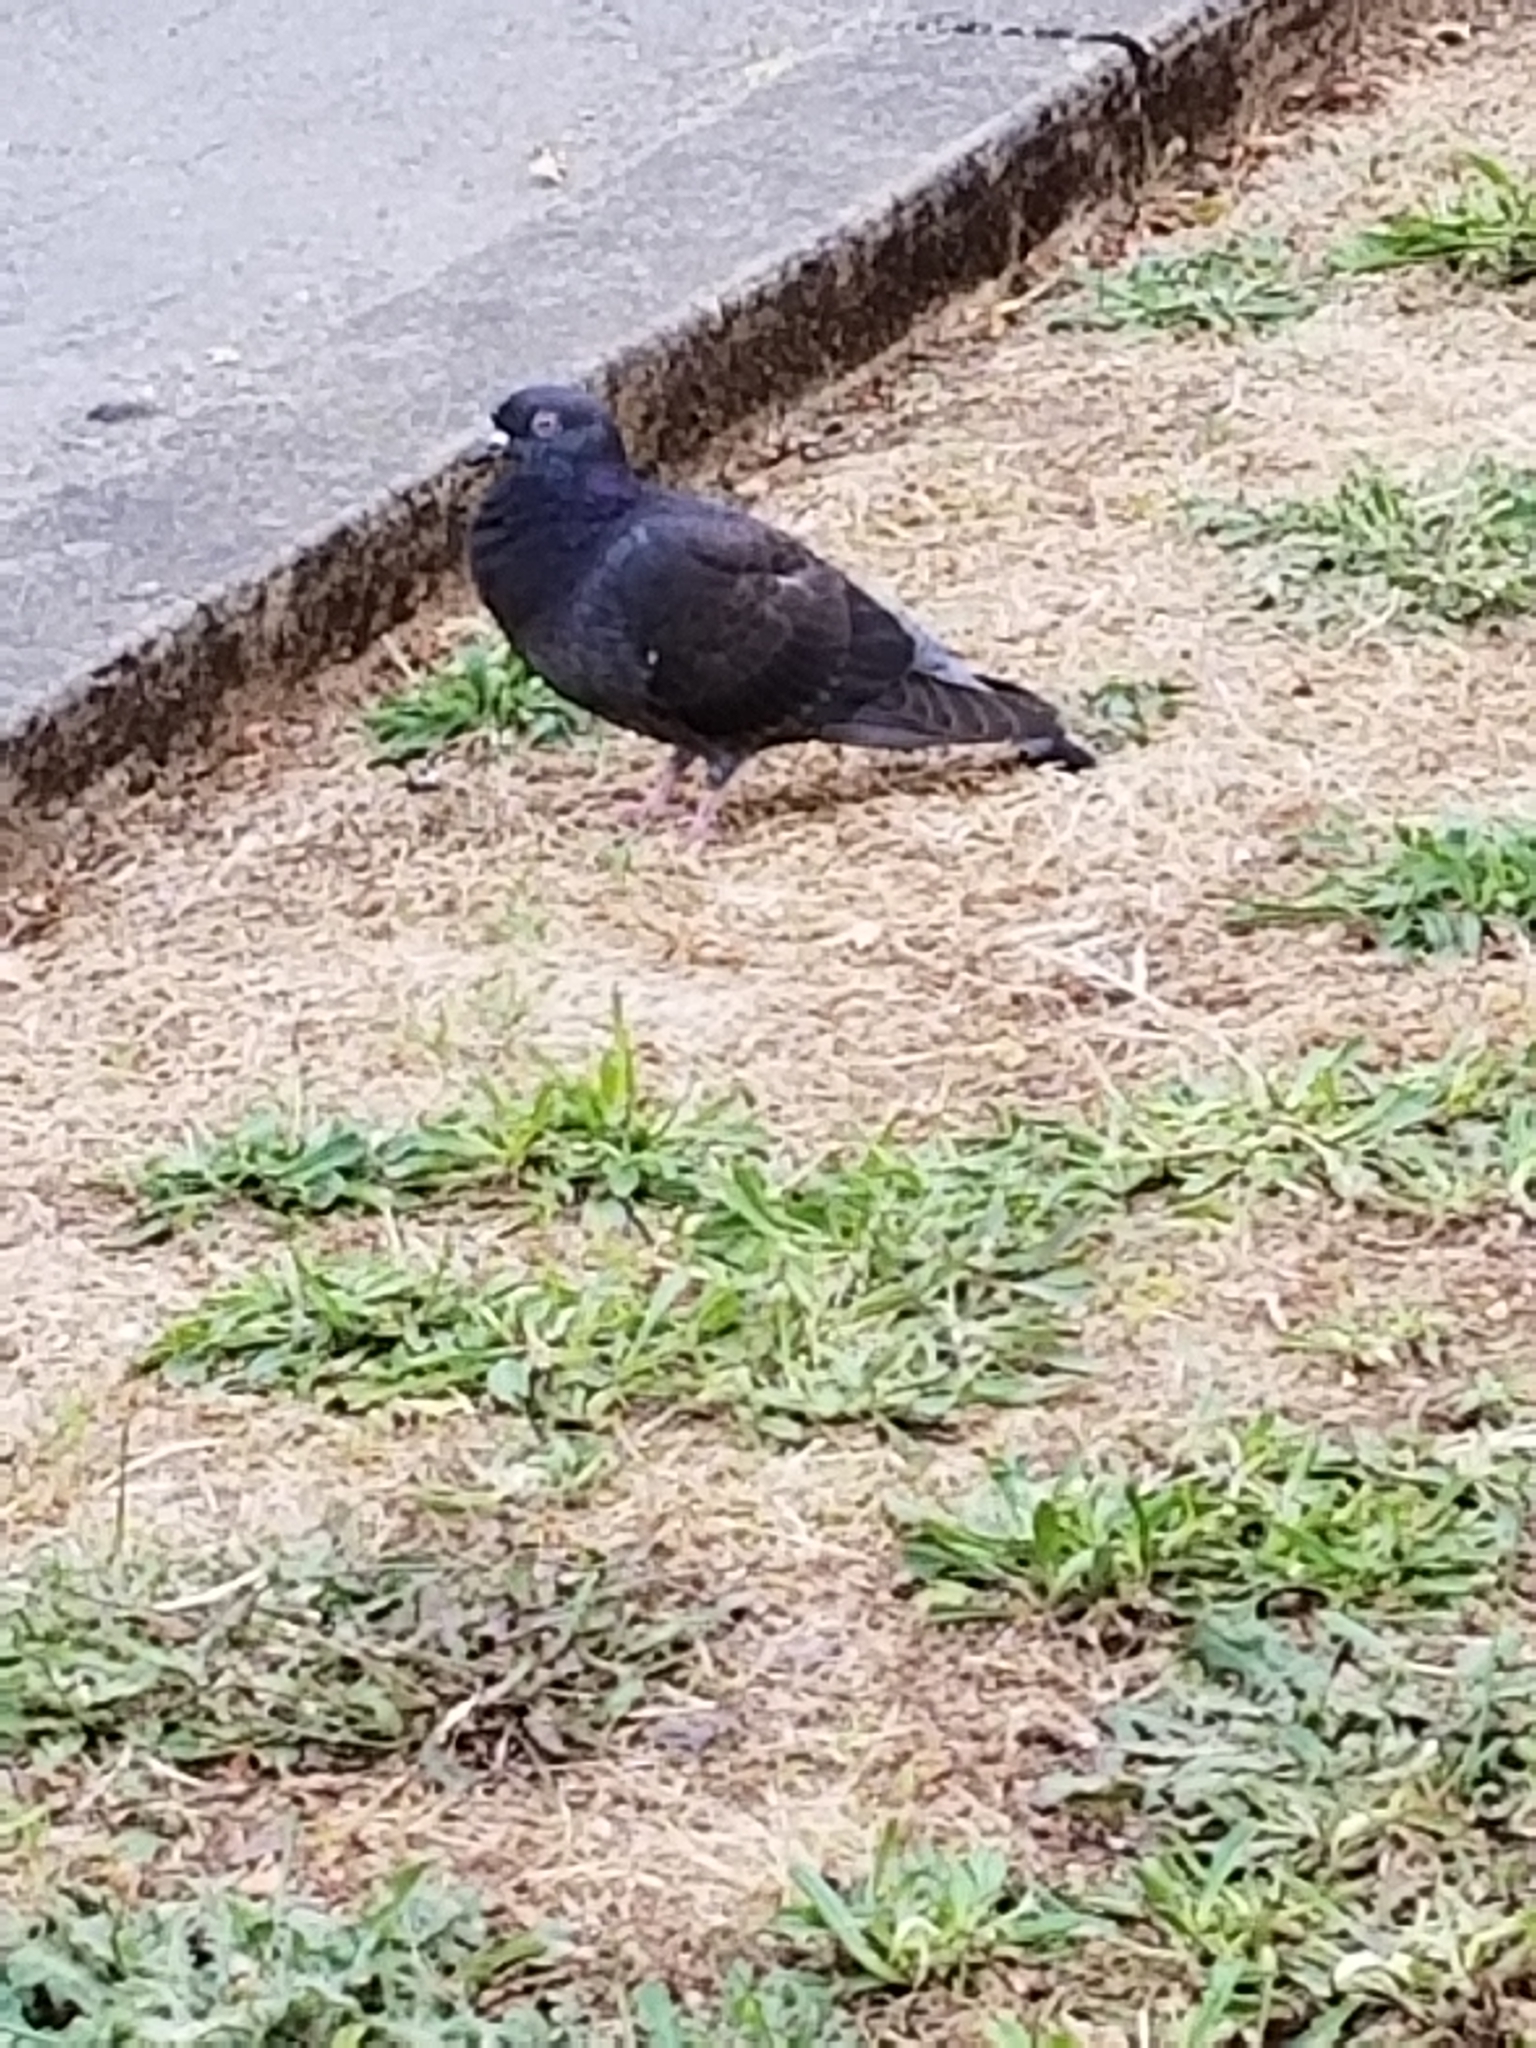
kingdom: Animalia
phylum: Chordata
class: Aves
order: Columbiformes
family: Columbidae
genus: Columba
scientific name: Columba livia
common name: Rock pigeon
